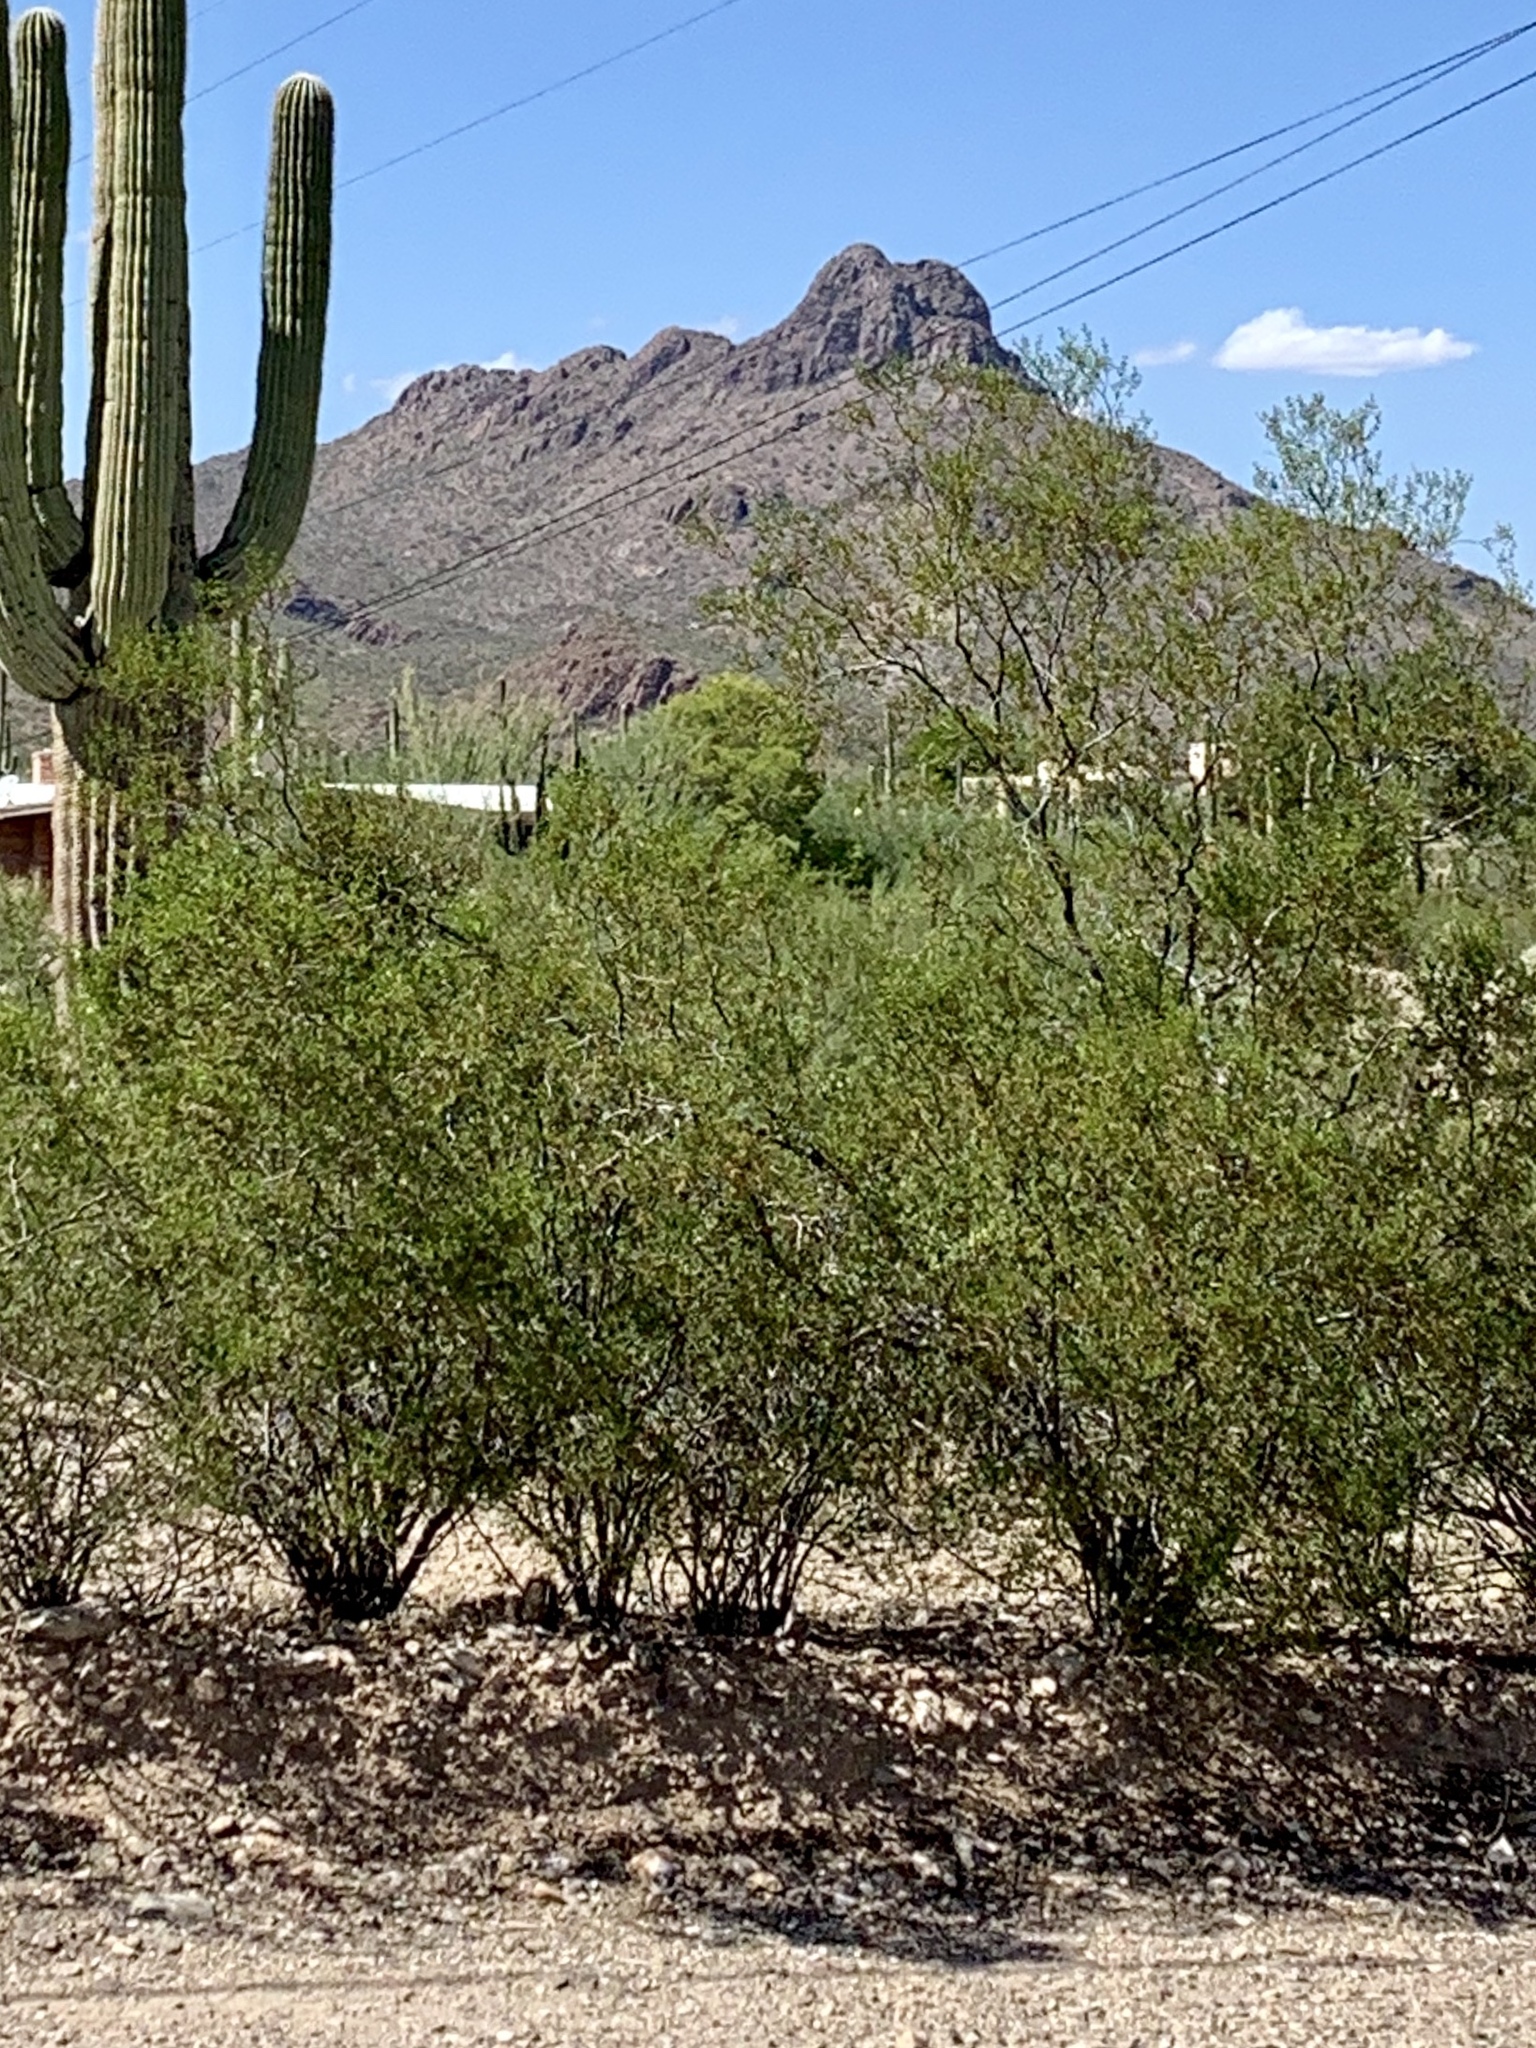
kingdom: Plantae
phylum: Tracheophyta
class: Magnoliopsida
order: Zygophyllales
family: Zygophyllaceae
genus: Larrea
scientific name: Larrea tridentata
